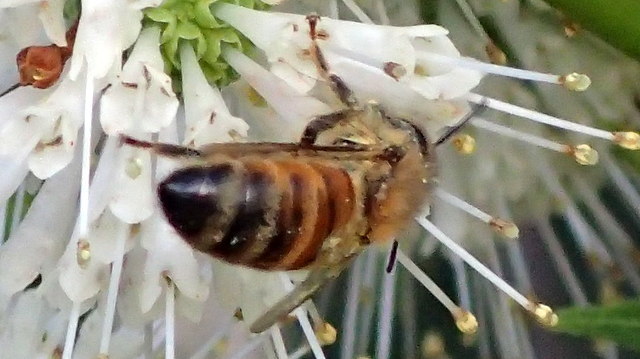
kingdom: Animalia
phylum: Arthropoda
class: Insecta
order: Hymenoptera
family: Apidae
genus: Apis
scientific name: Apis mellifera
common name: Honey bee
